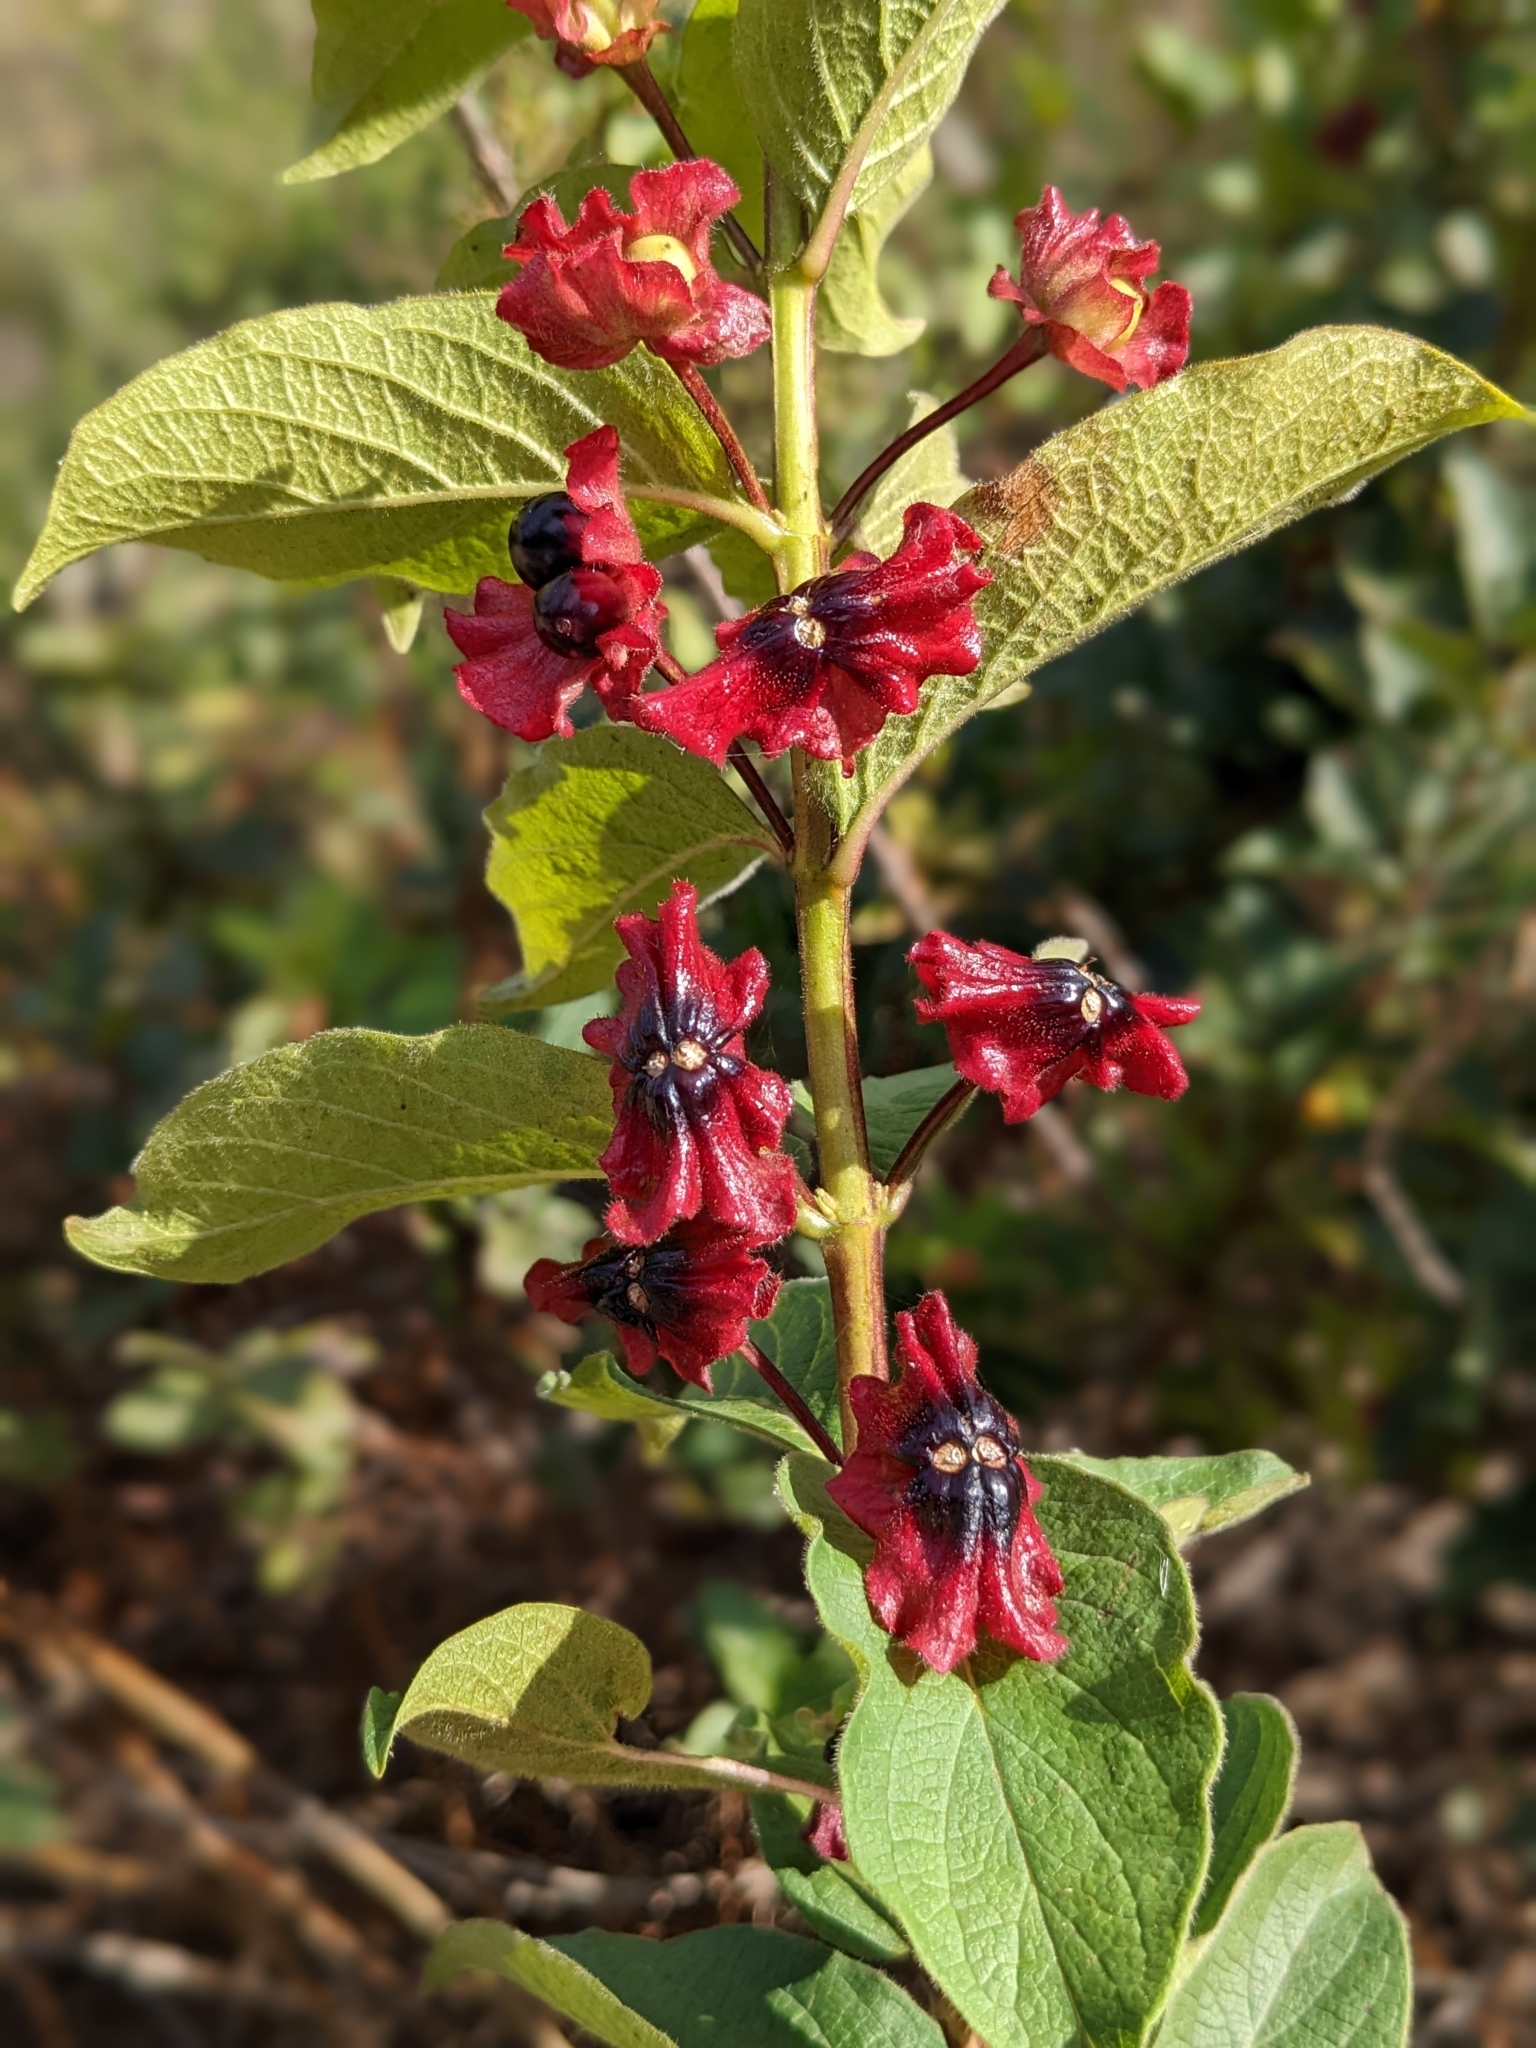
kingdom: Plantae
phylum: Tracheophyta
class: Magnoliopsida
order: Dipsacales
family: Caprifoliaceae
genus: Lonicera
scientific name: Lonicera involucrata
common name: Californian honeysuckle
